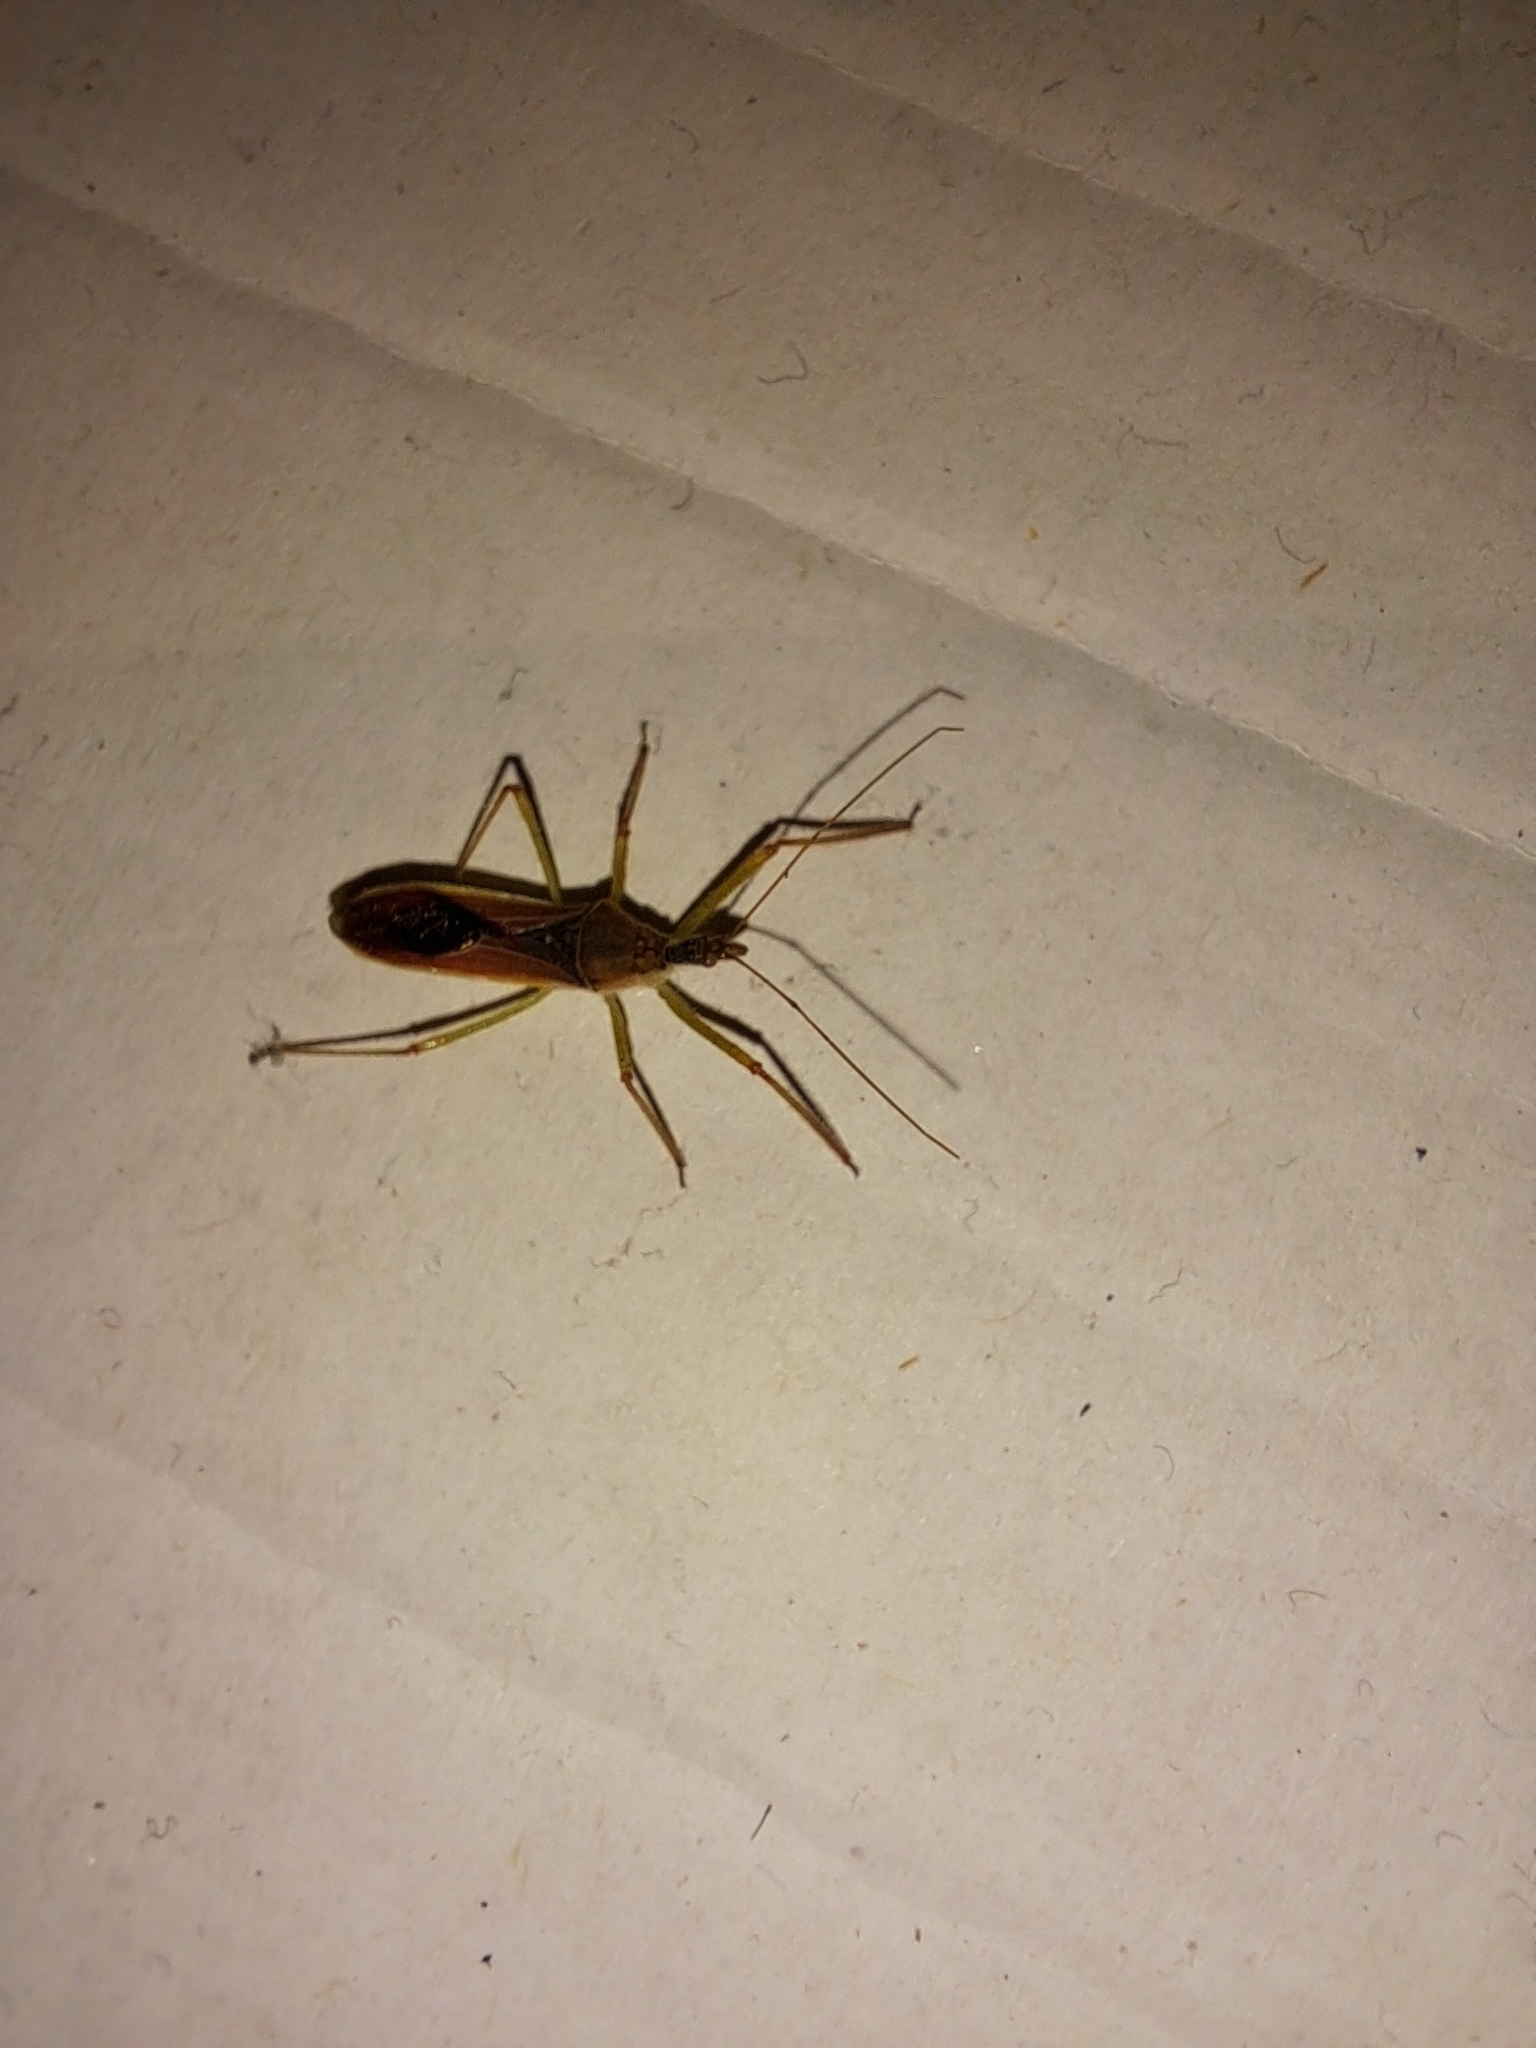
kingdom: Animalia
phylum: Arthropoda
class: Insecta
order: Hemiptera
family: Reduviidae
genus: Zelus
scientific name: Zelus renardii
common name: Assassin bug
